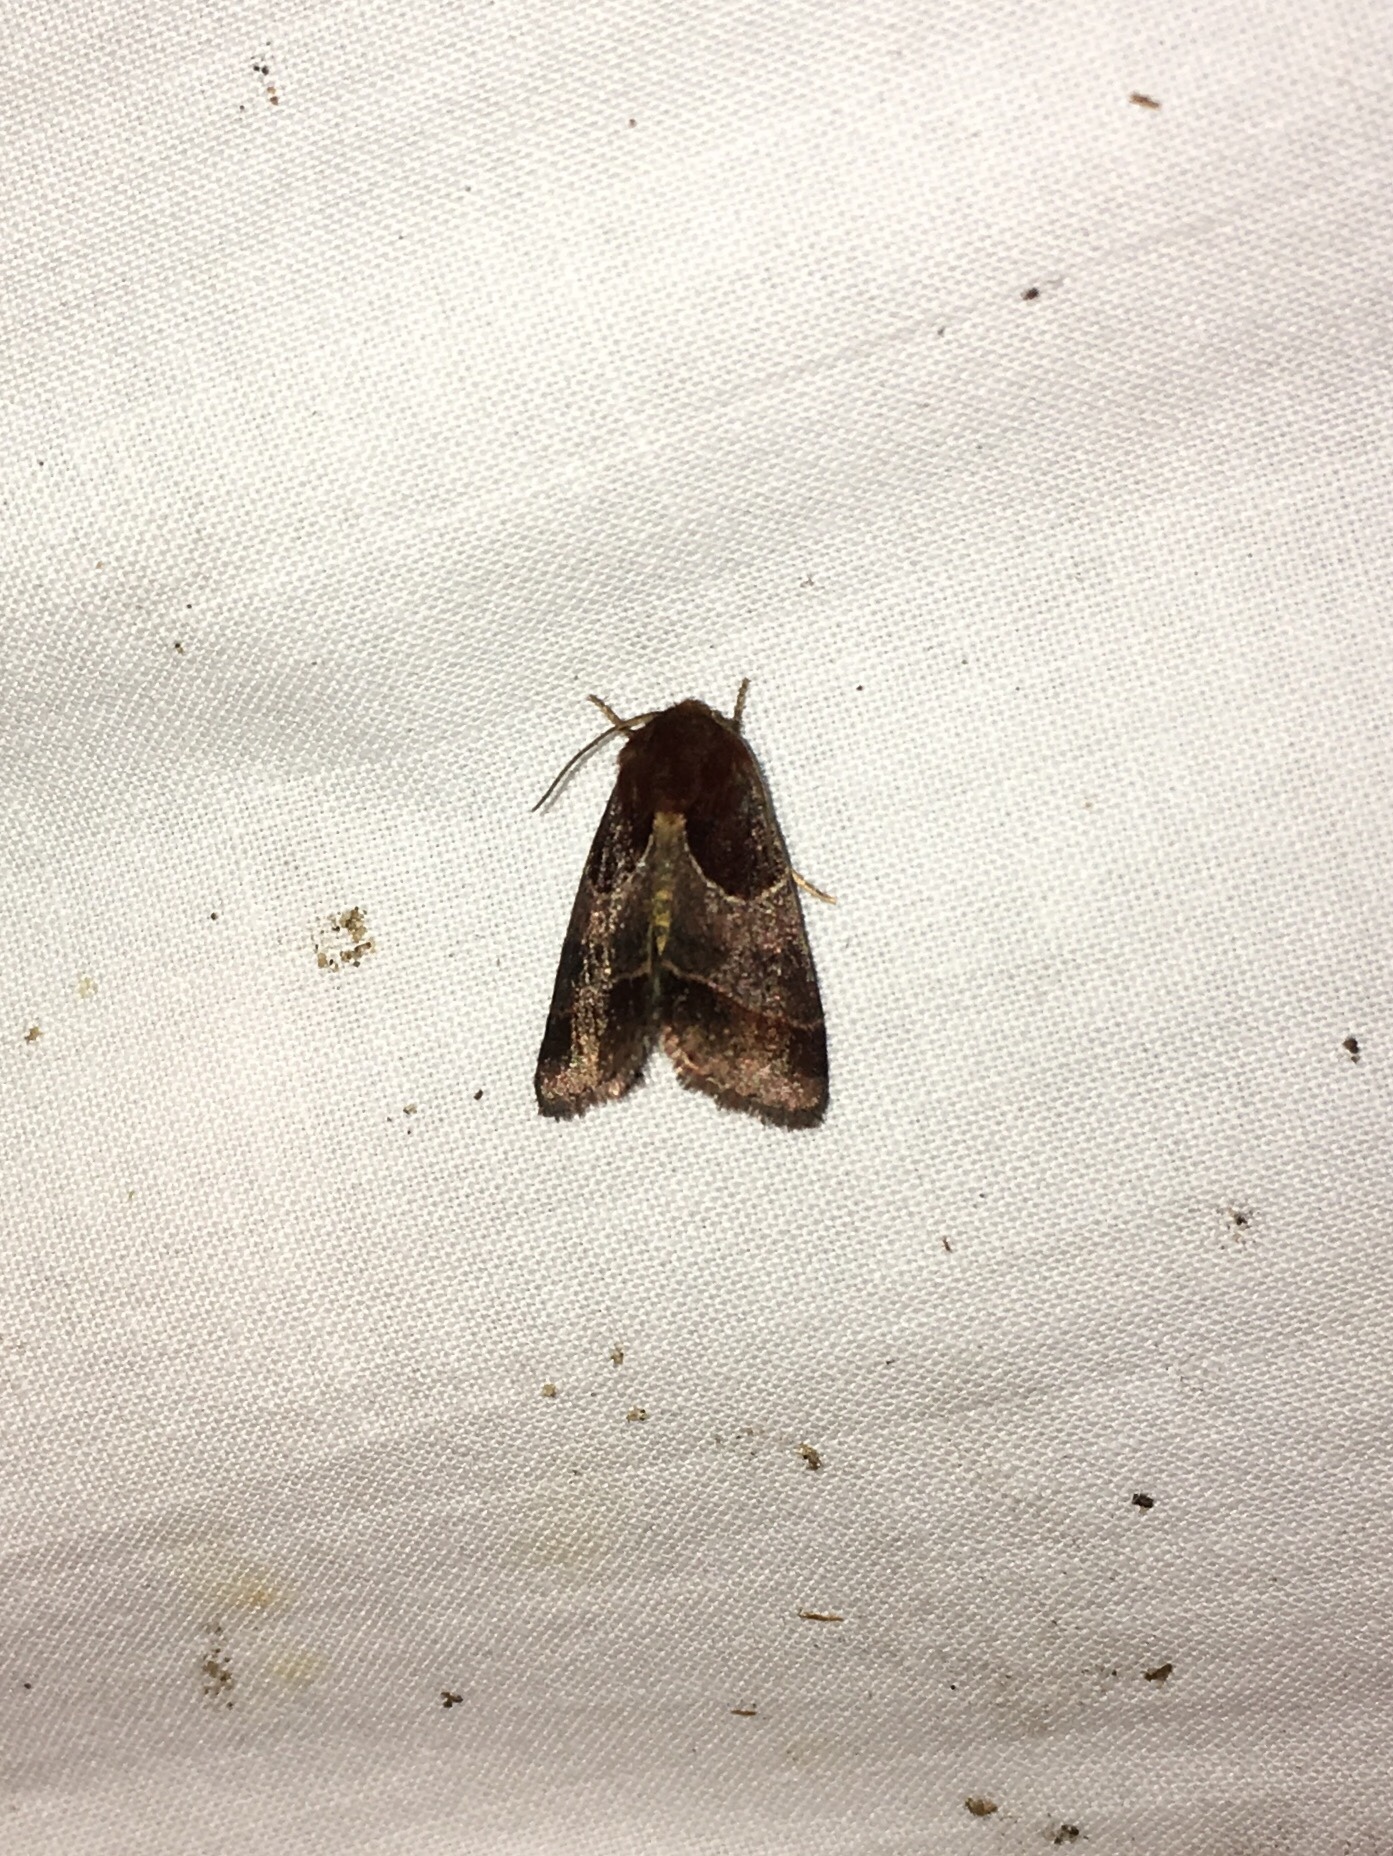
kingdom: Animalia
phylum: Arthropoda
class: Insecta
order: Lepidoptera
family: Noctuidae
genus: Schinia
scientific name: Schinia arcigera
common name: Arcigera flower moth
